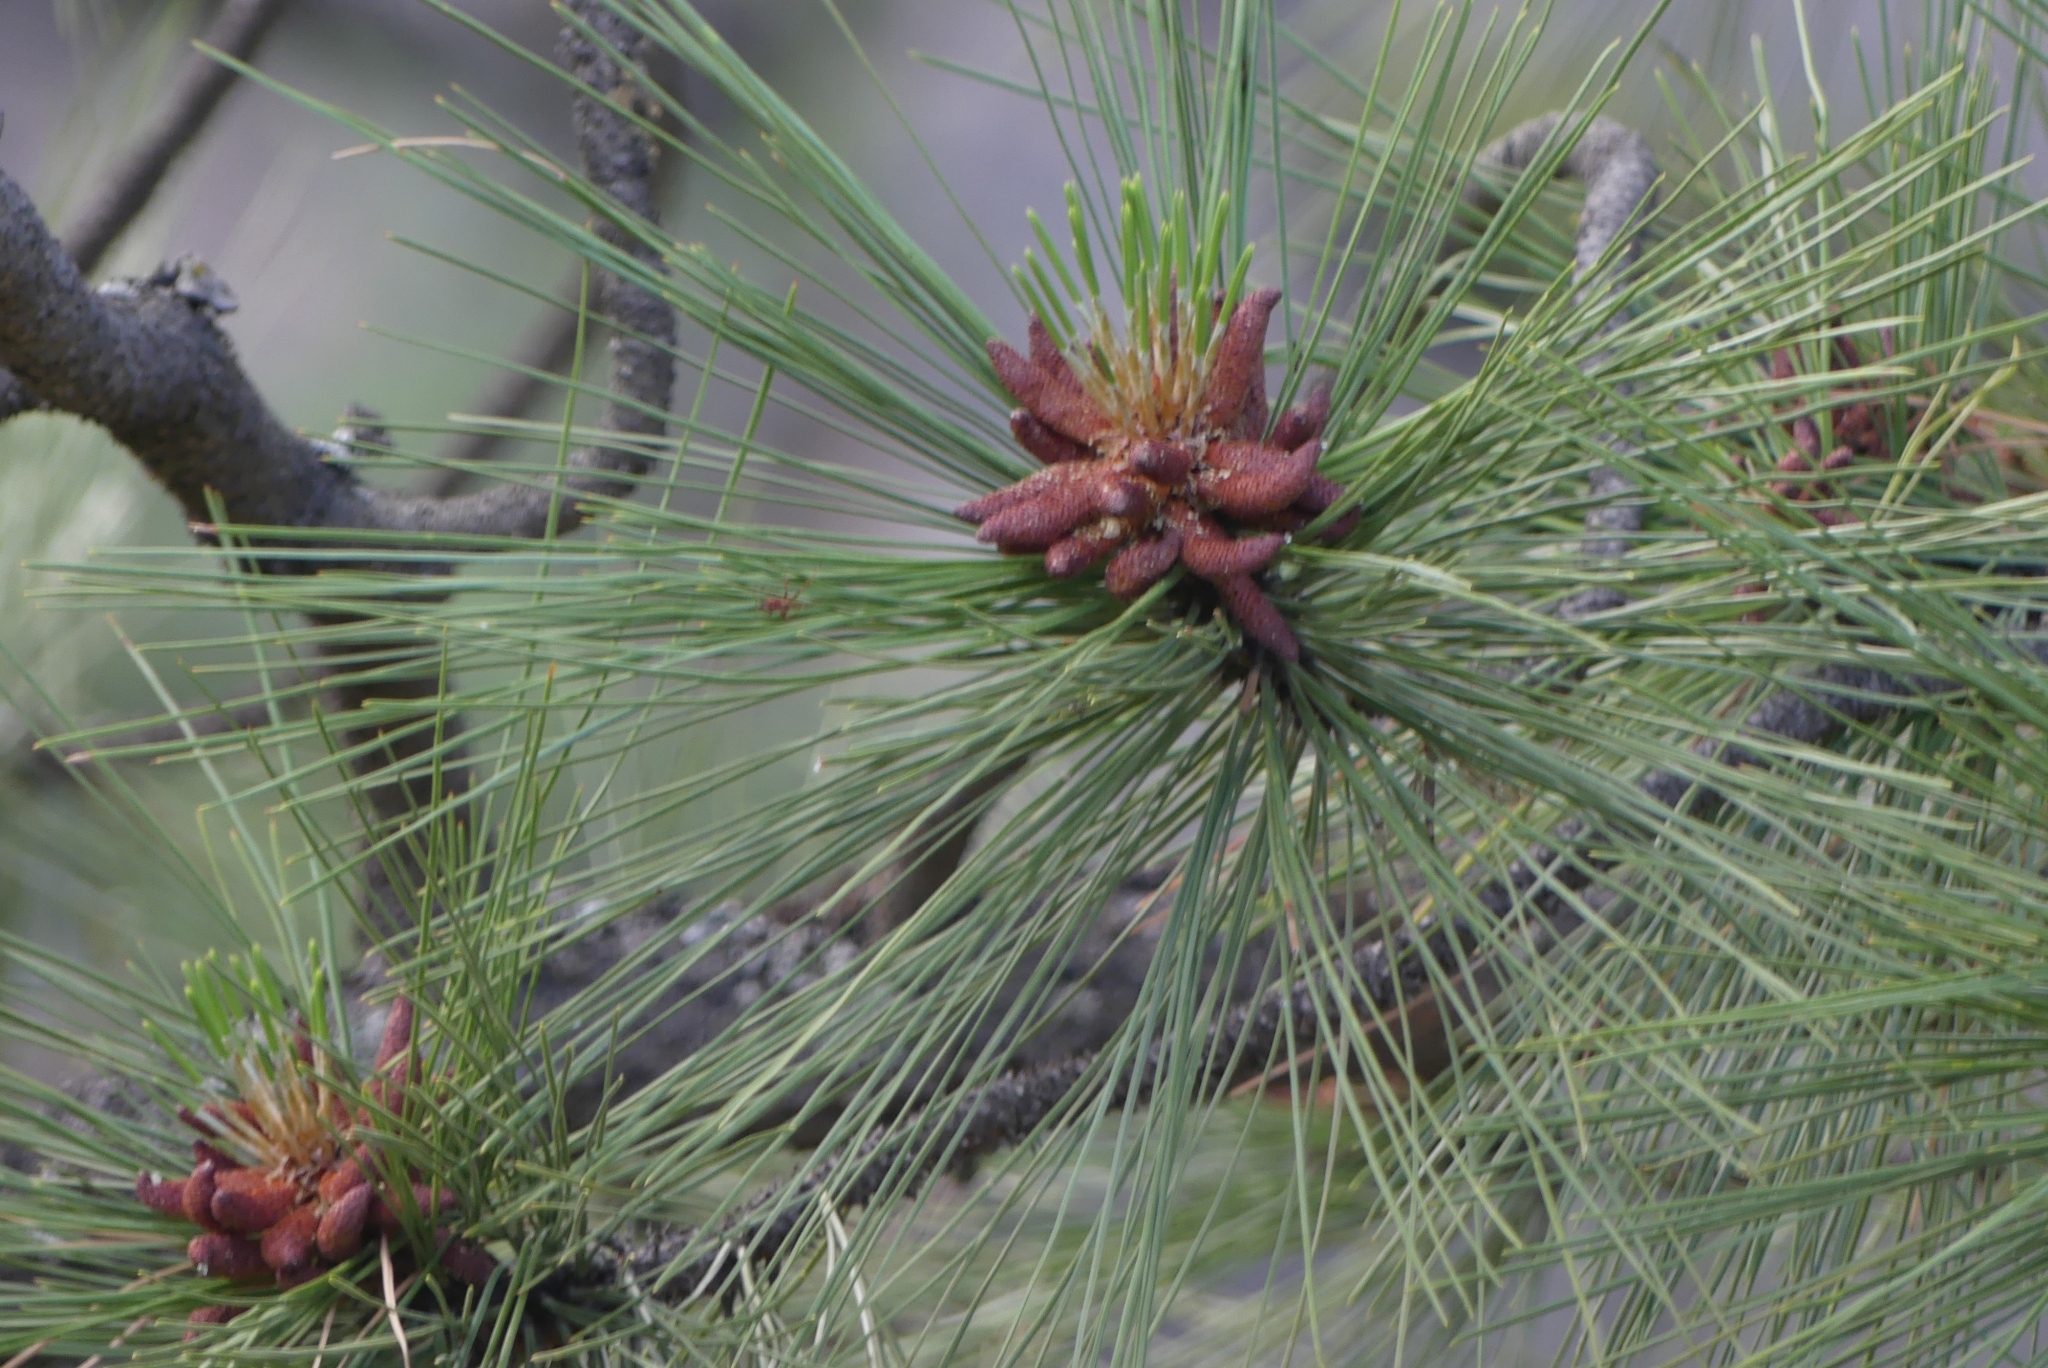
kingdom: Plantae
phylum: Tracheophyta
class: Pinopsida
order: Pinales
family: Pinaceae
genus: Pinus
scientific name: Pinus ponderosa
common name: Western yellow-pine
